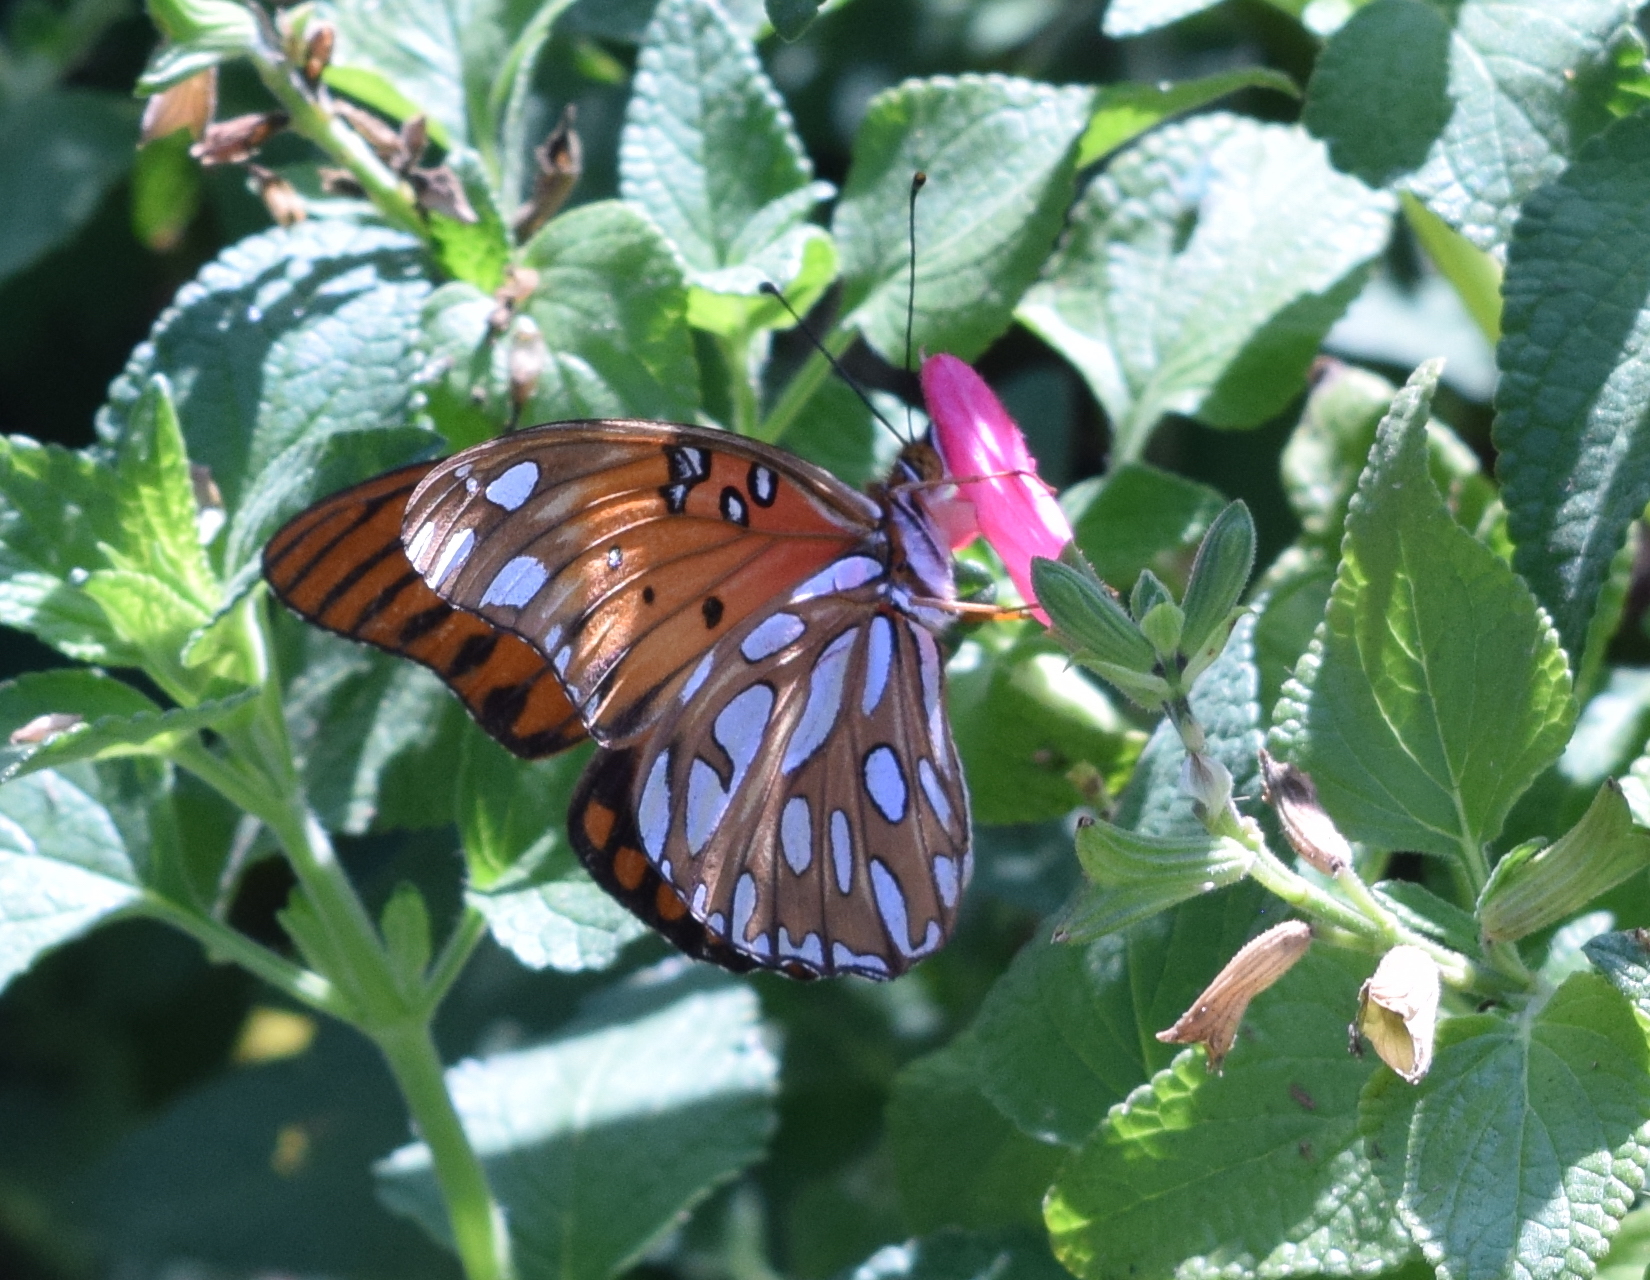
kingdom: Animalia
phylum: Arthropoda
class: Insecta
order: Lepidoptera
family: Nymphalidae
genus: Dione
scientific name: Dione vanillae
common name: Gulf fritillary
